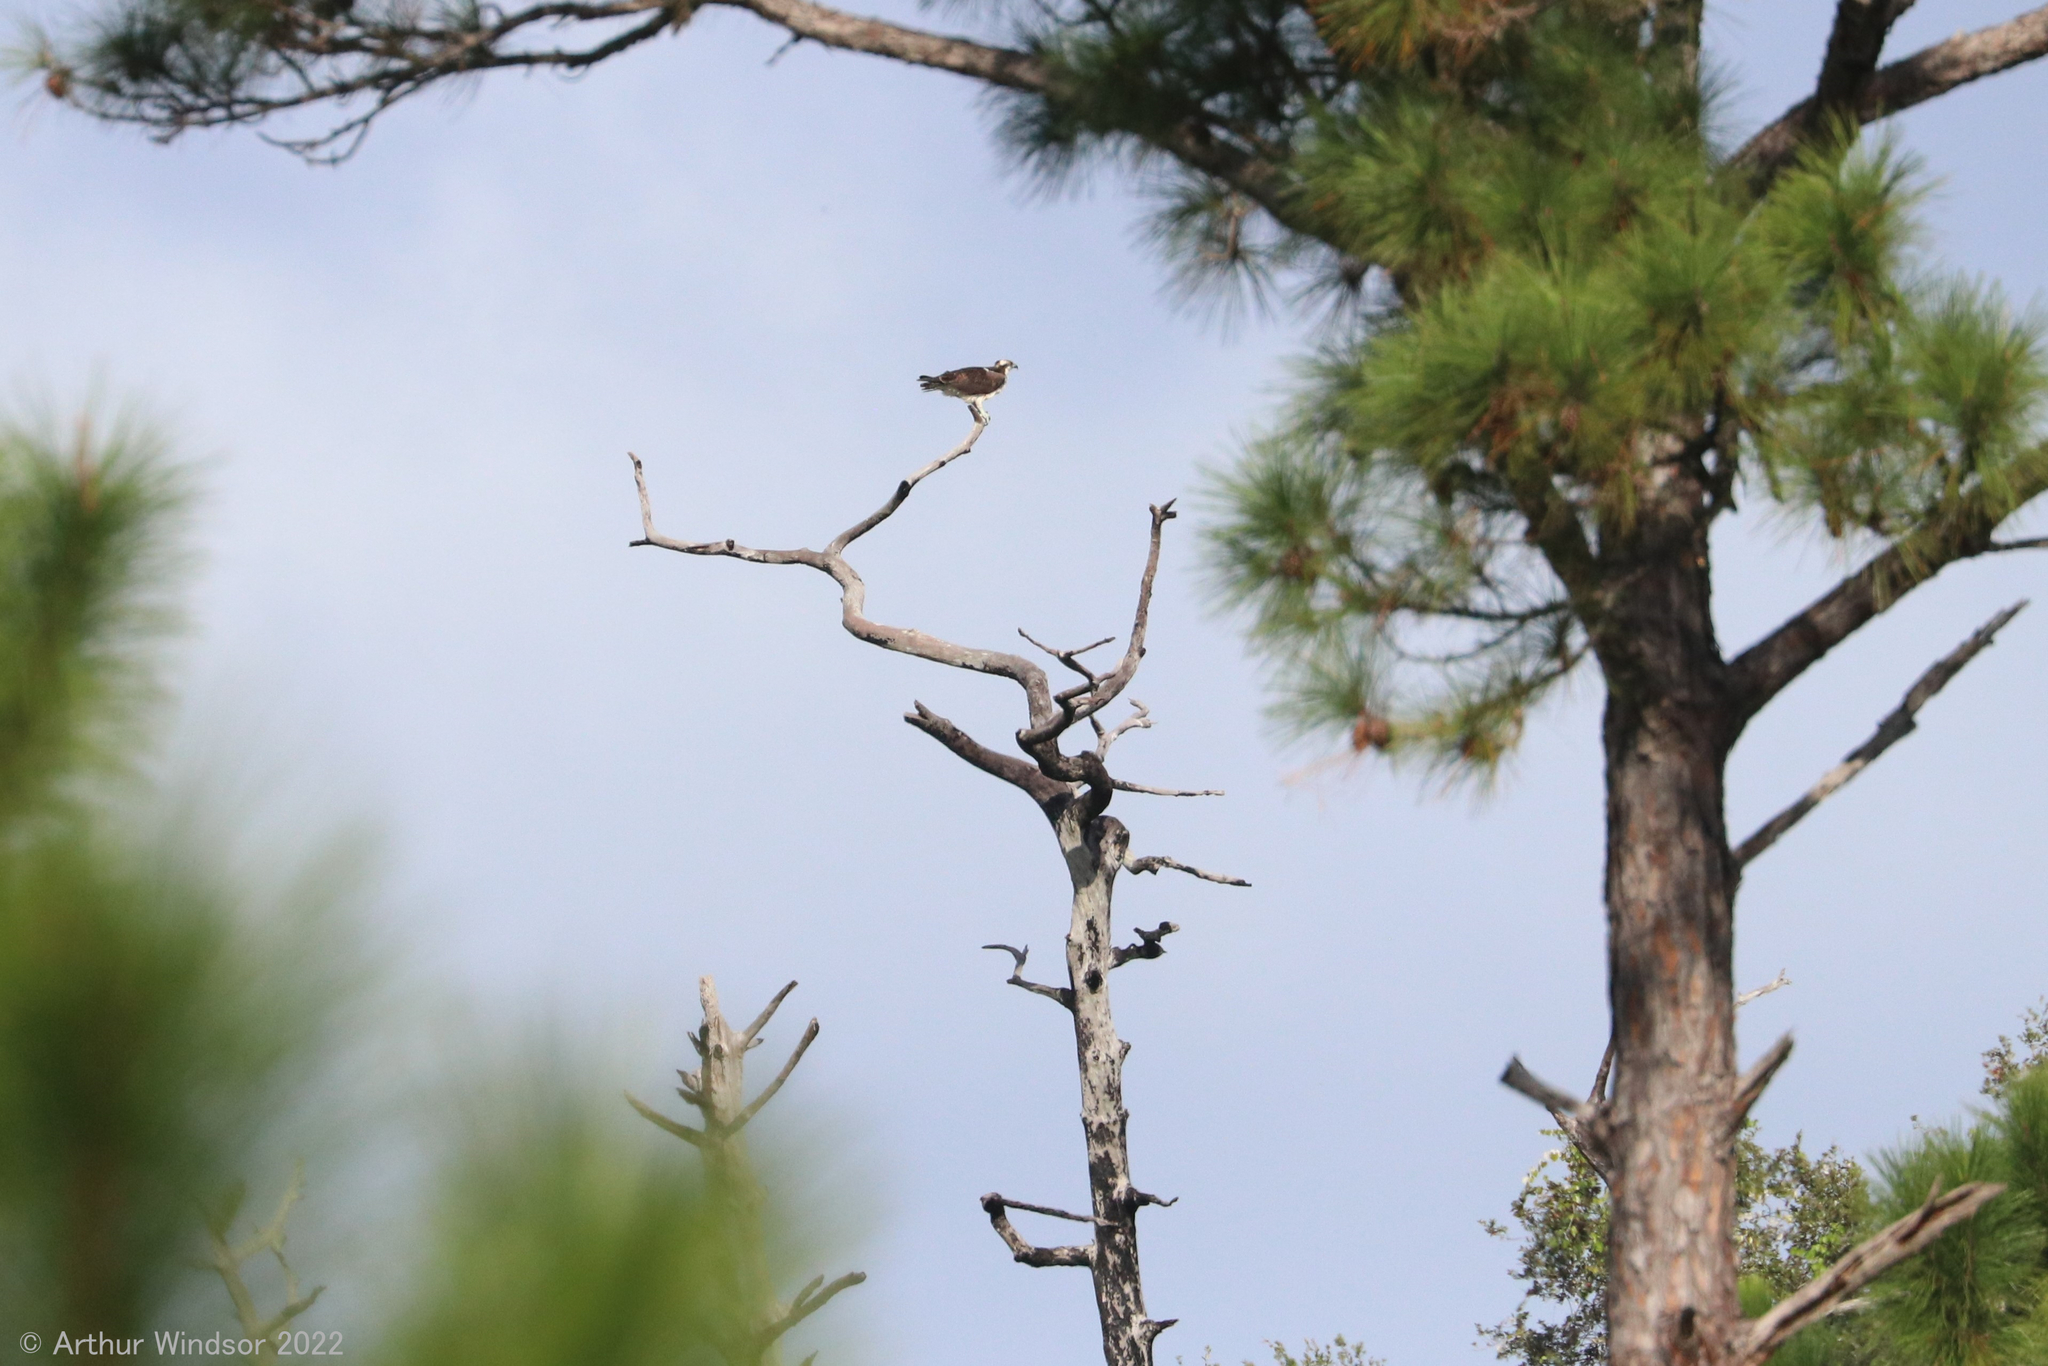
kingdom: Animalia
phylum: Chordata
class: Aves
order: Accipitriformes
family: Pandionidae
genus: Pandion
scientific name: Pandion haliaetus
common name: Osprey
